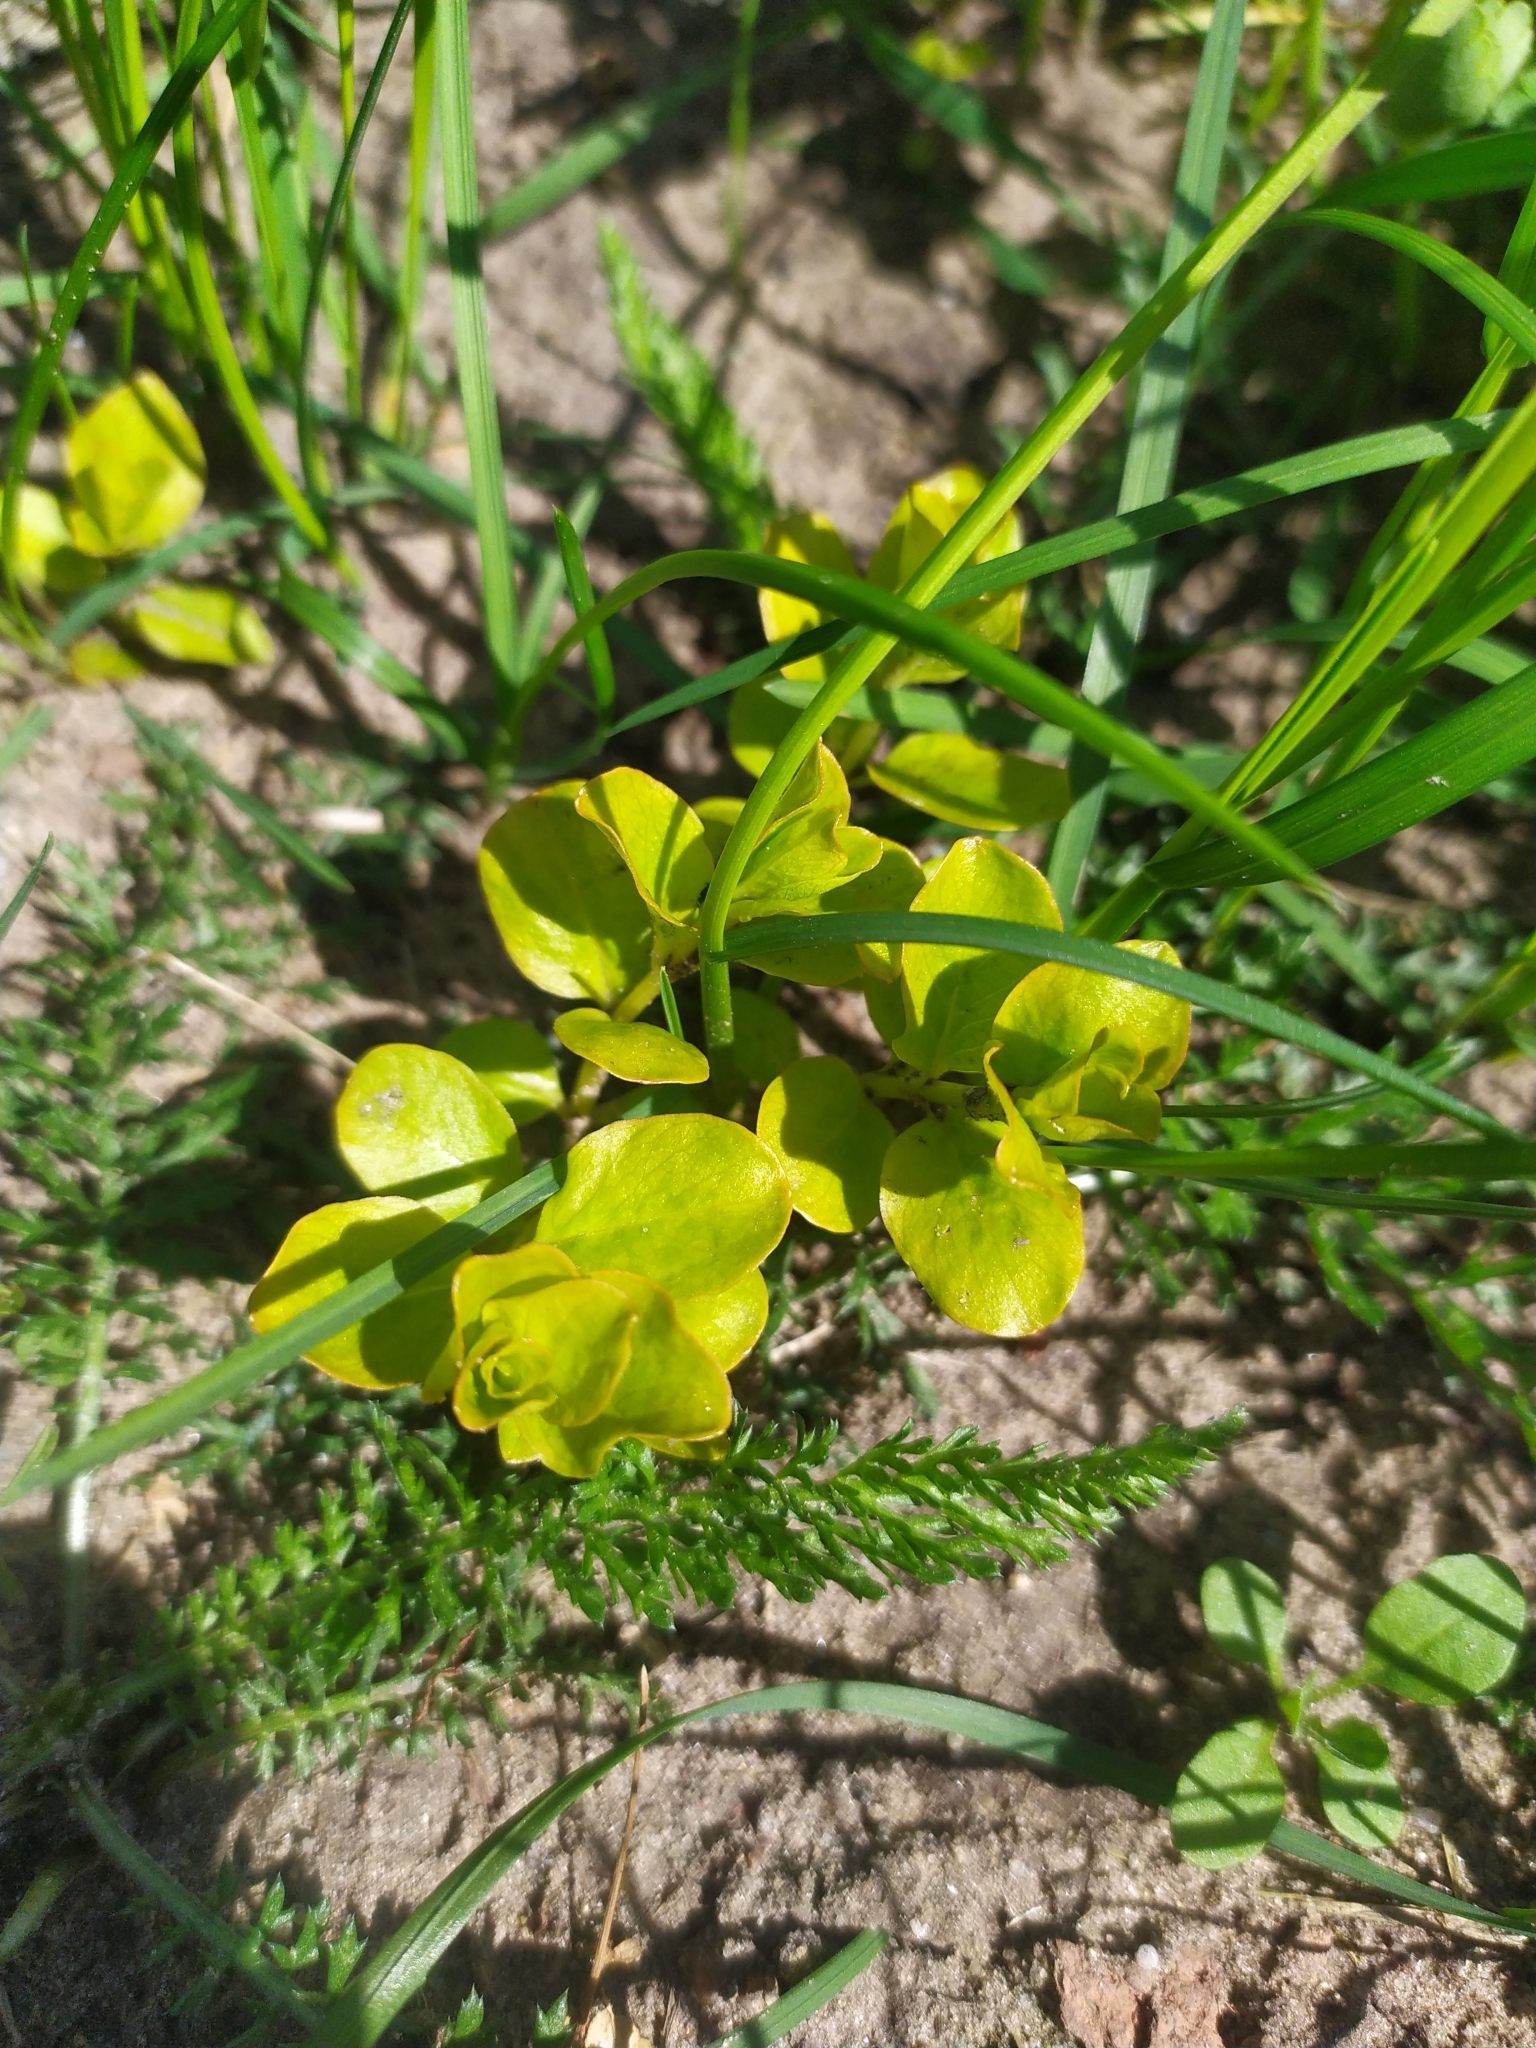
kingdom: Plantae
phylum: Tracheophyta
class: Magnoliopsida
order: Ericales
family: Primulaceae
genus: Lysimachia
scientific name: Lysimachia nummularia
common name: Moneywort
